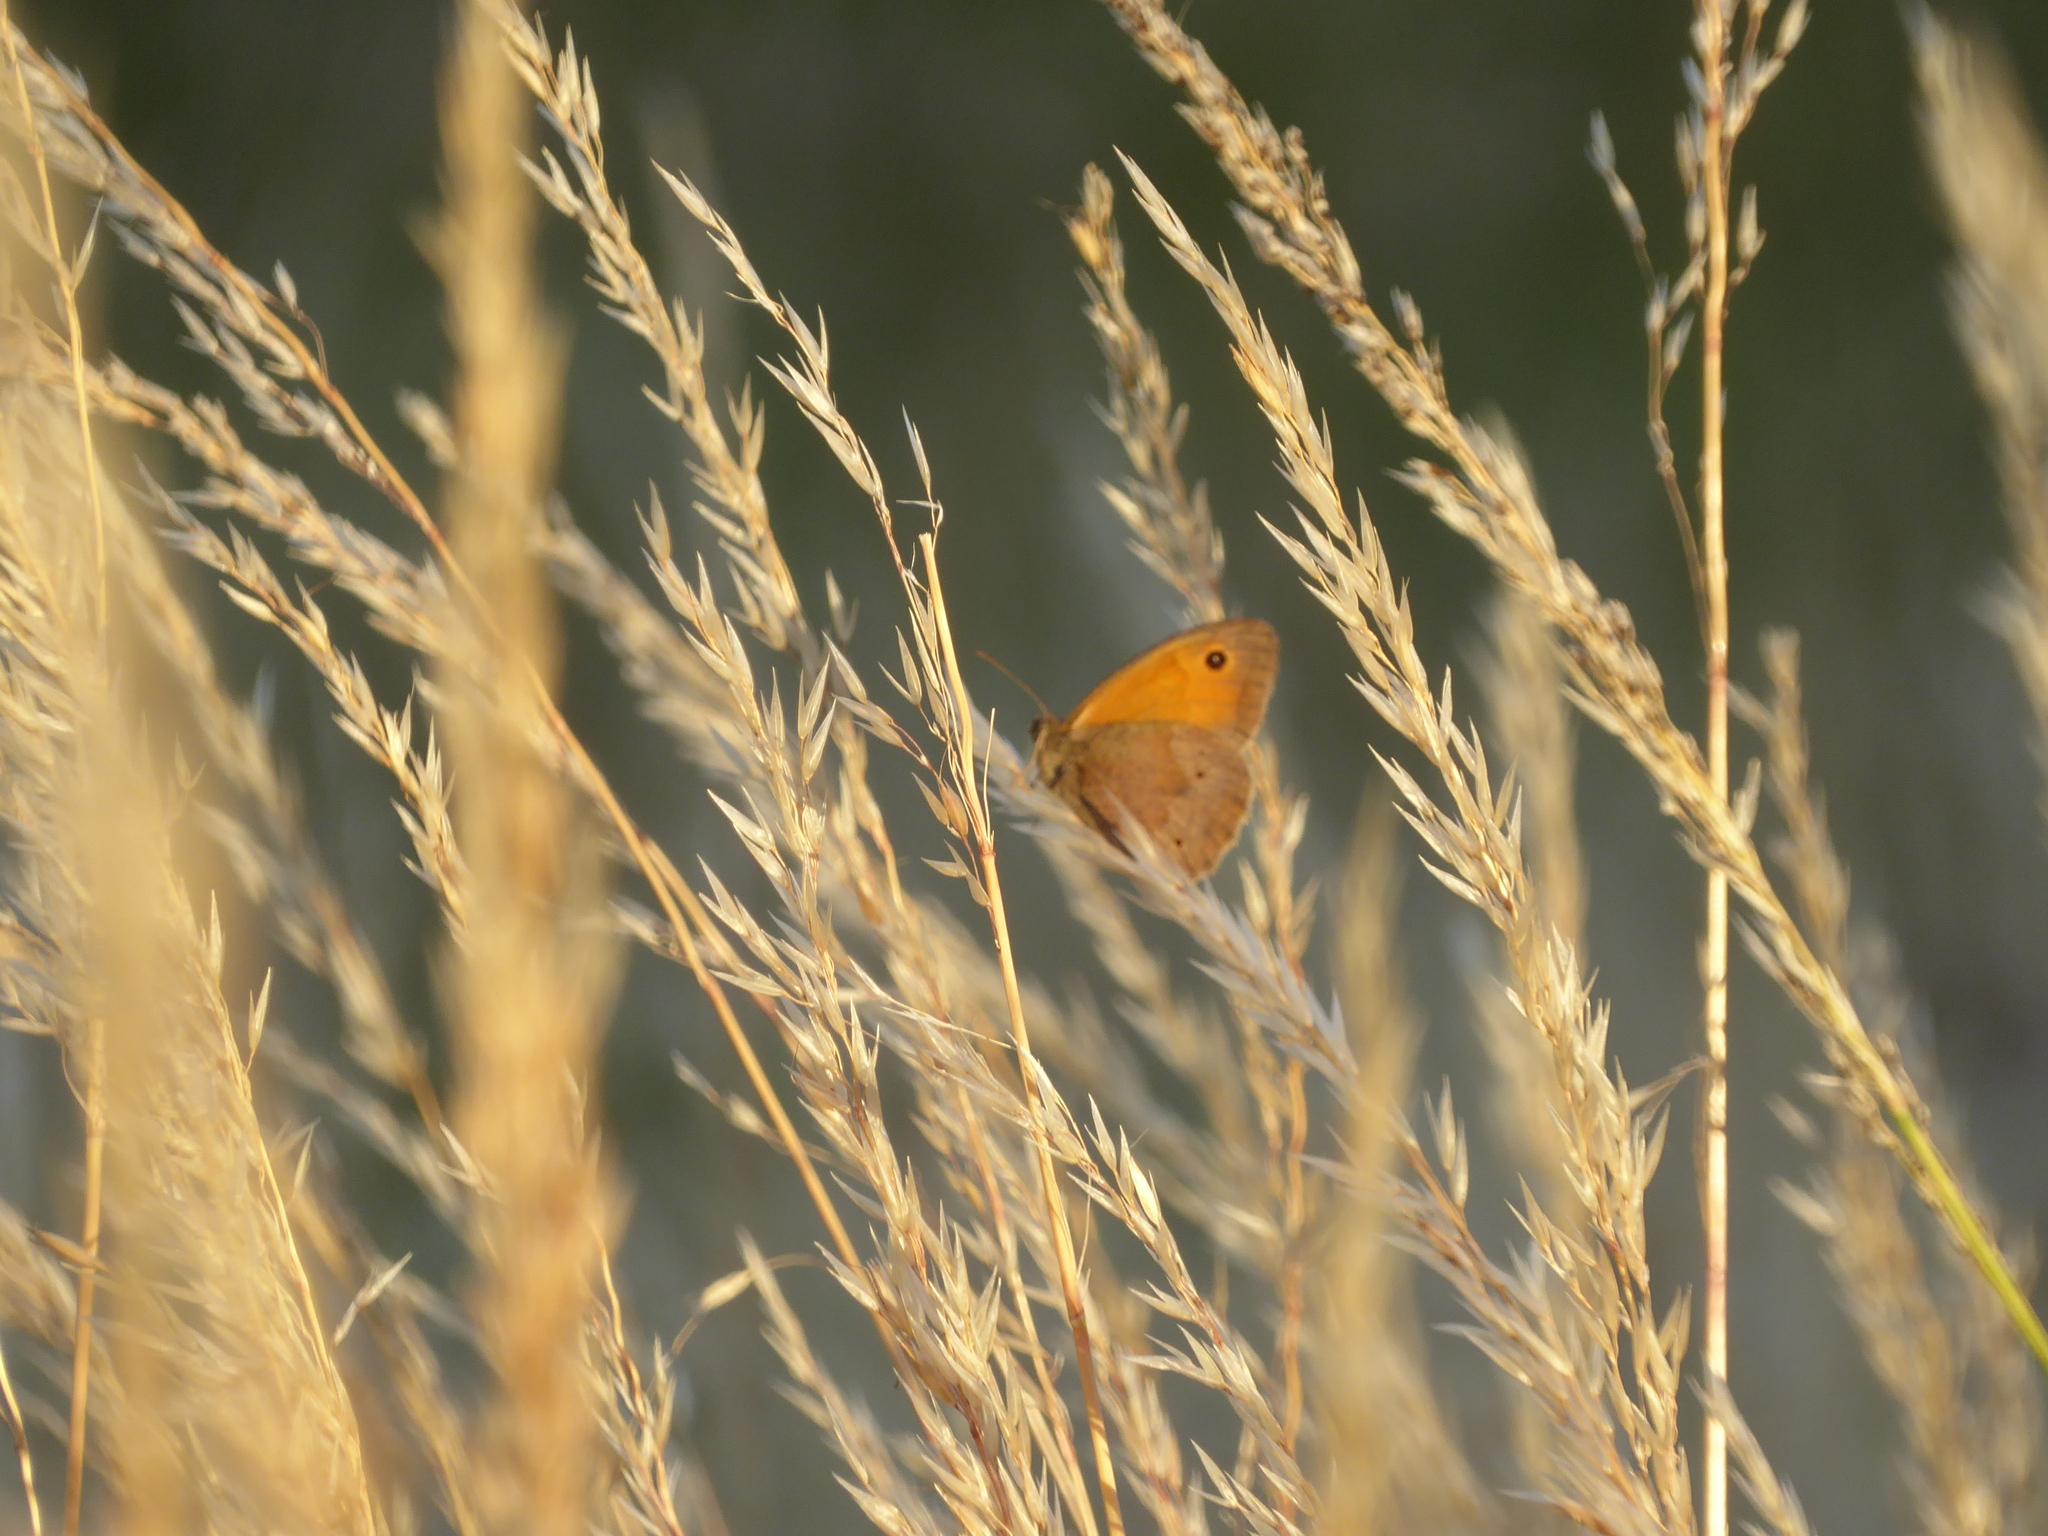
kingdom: Animalia
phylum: Arthropoda
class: Insecta
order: Lepidoptera
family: Nymphalidae
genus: Maniola
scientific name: Maniola jurtina
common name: Meadow brown
